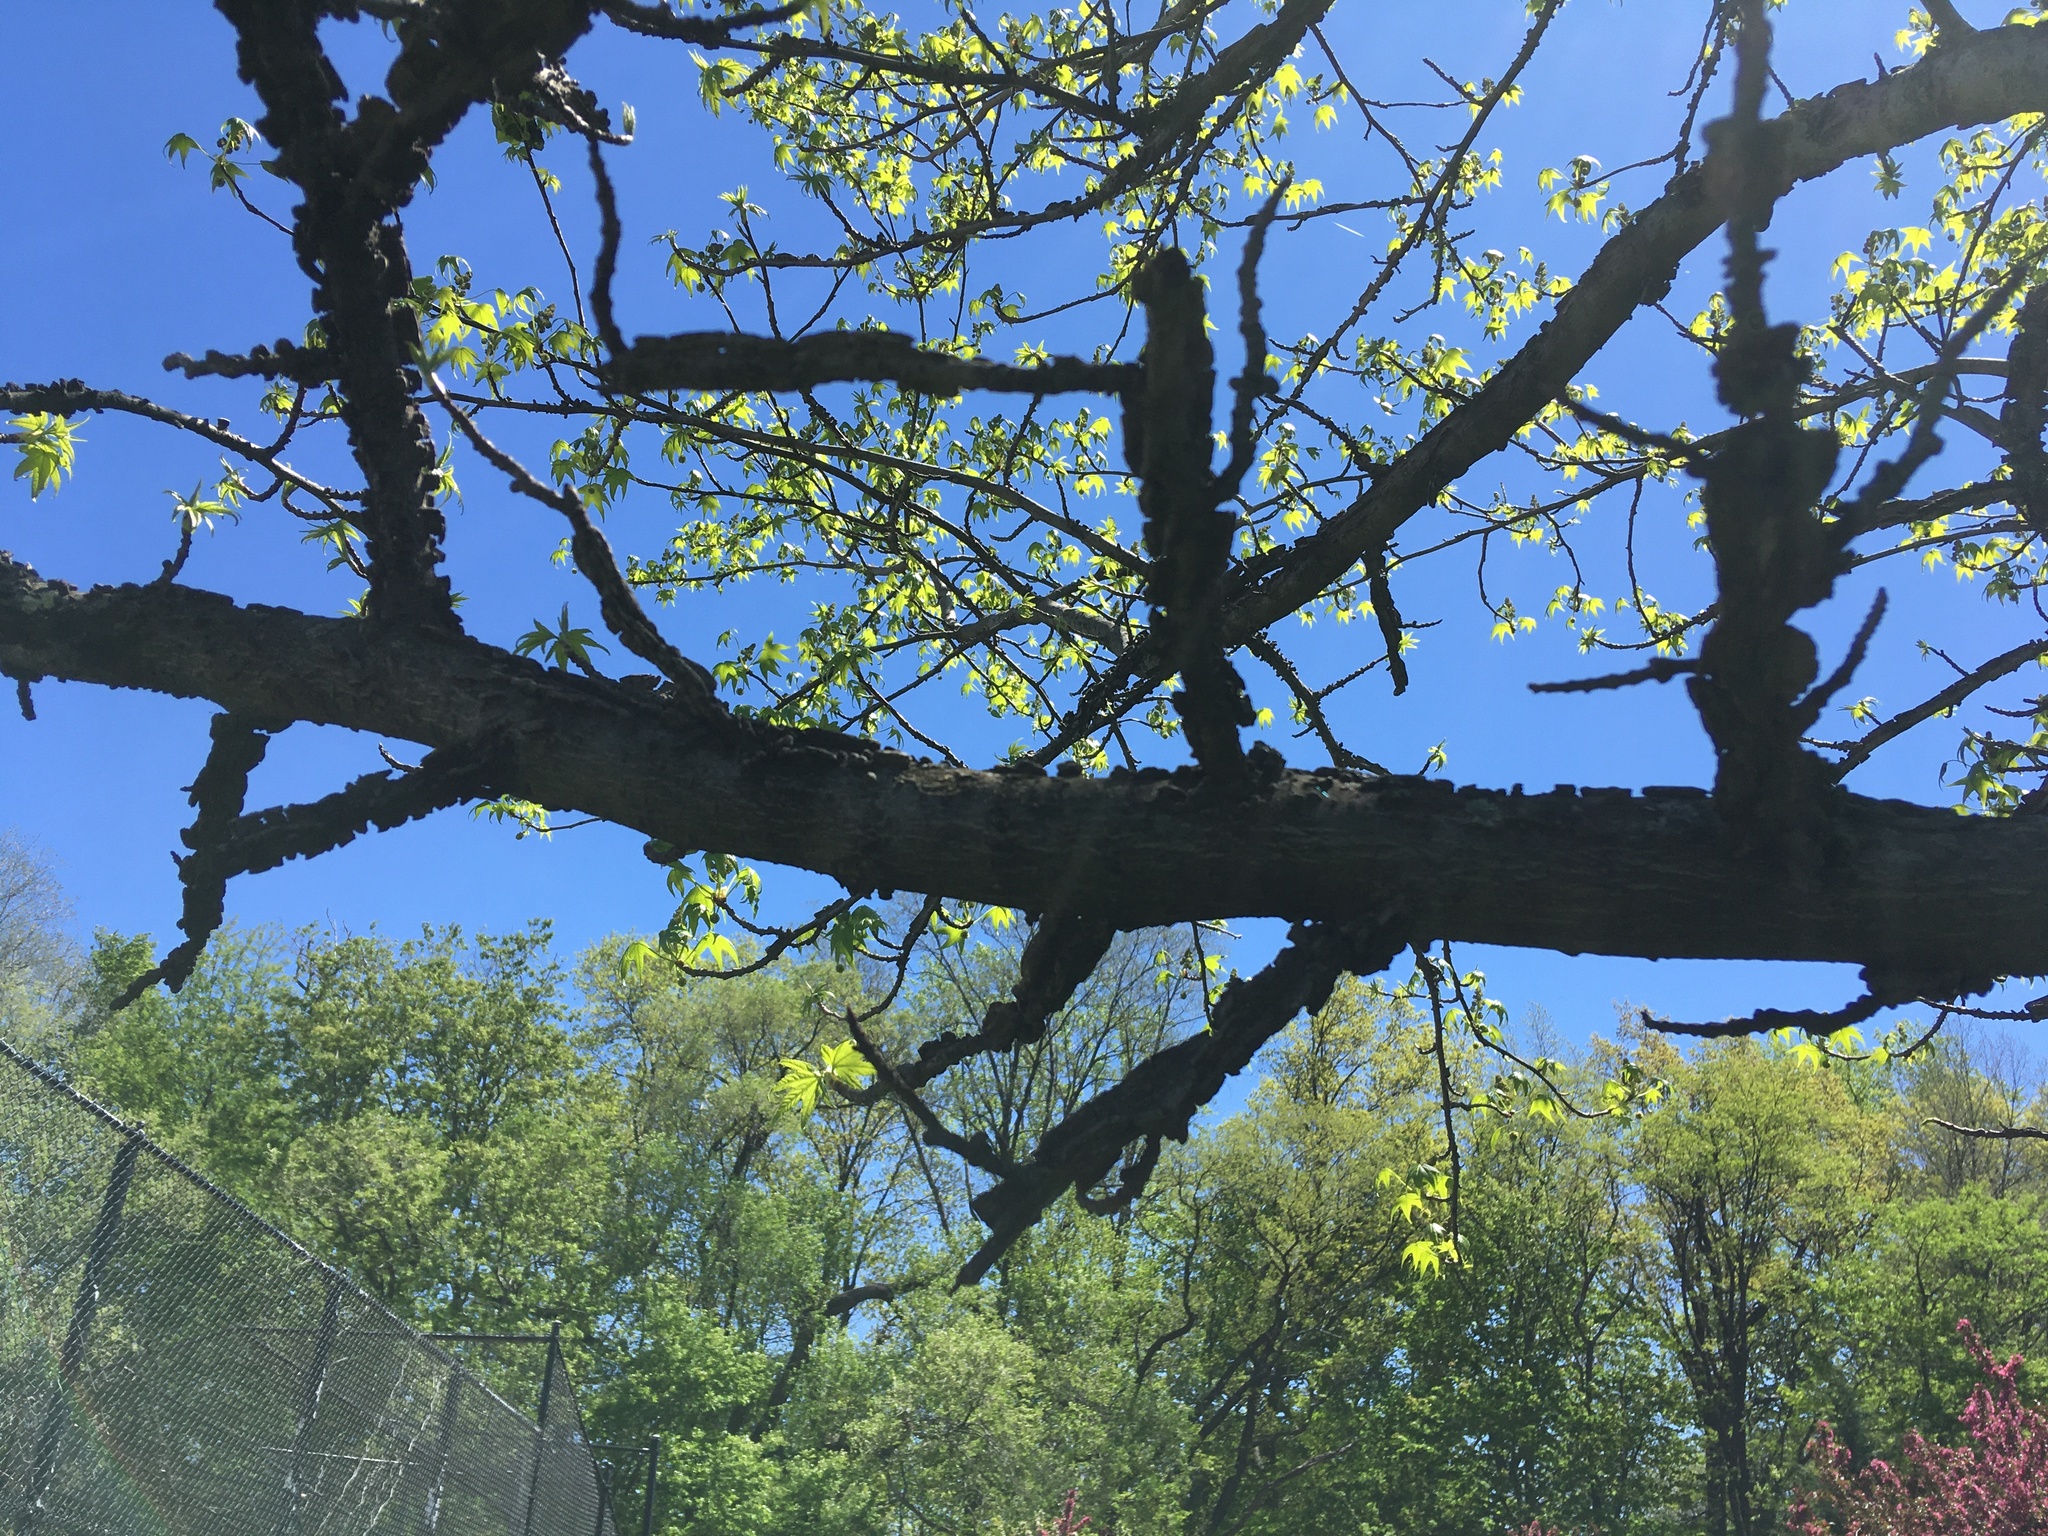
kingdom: Plantae
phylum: Tracheophyta
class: Magnoliopsida
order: Saxifragales
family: Altingiaceae
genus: Liquidambar
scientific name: Liquidambar styraciflua
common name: Sweet gum
